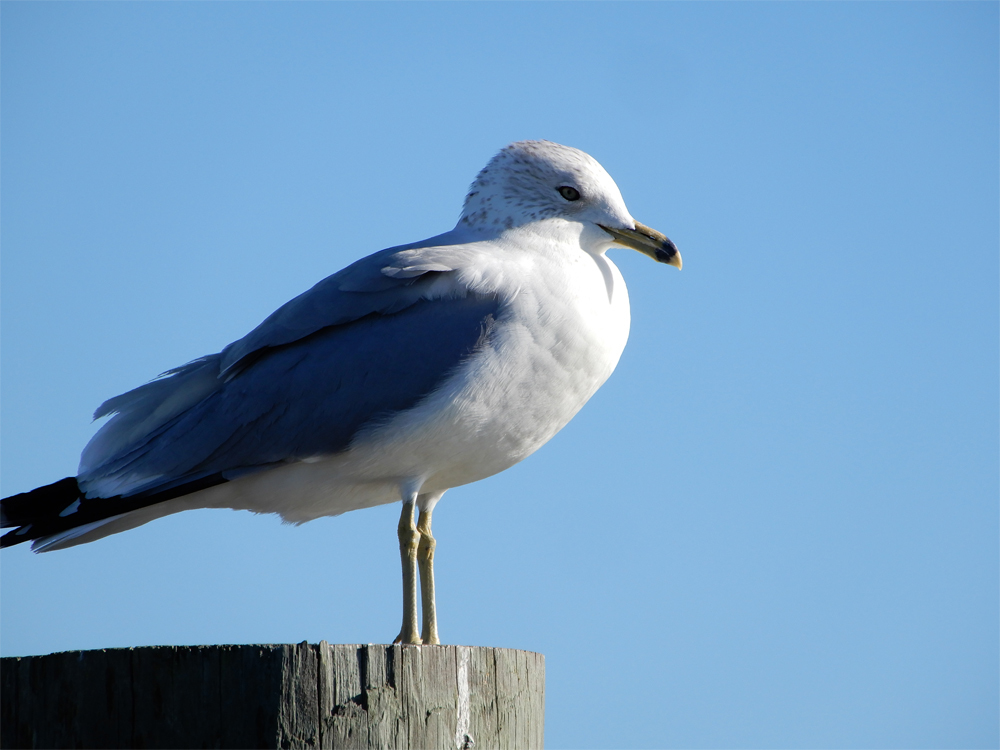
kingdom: Animalia
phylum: Chordata
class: Aves
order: Charadriiformes
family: Laridae
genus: Larus
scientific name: Larus delawarensis
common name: Ring-billed gull
